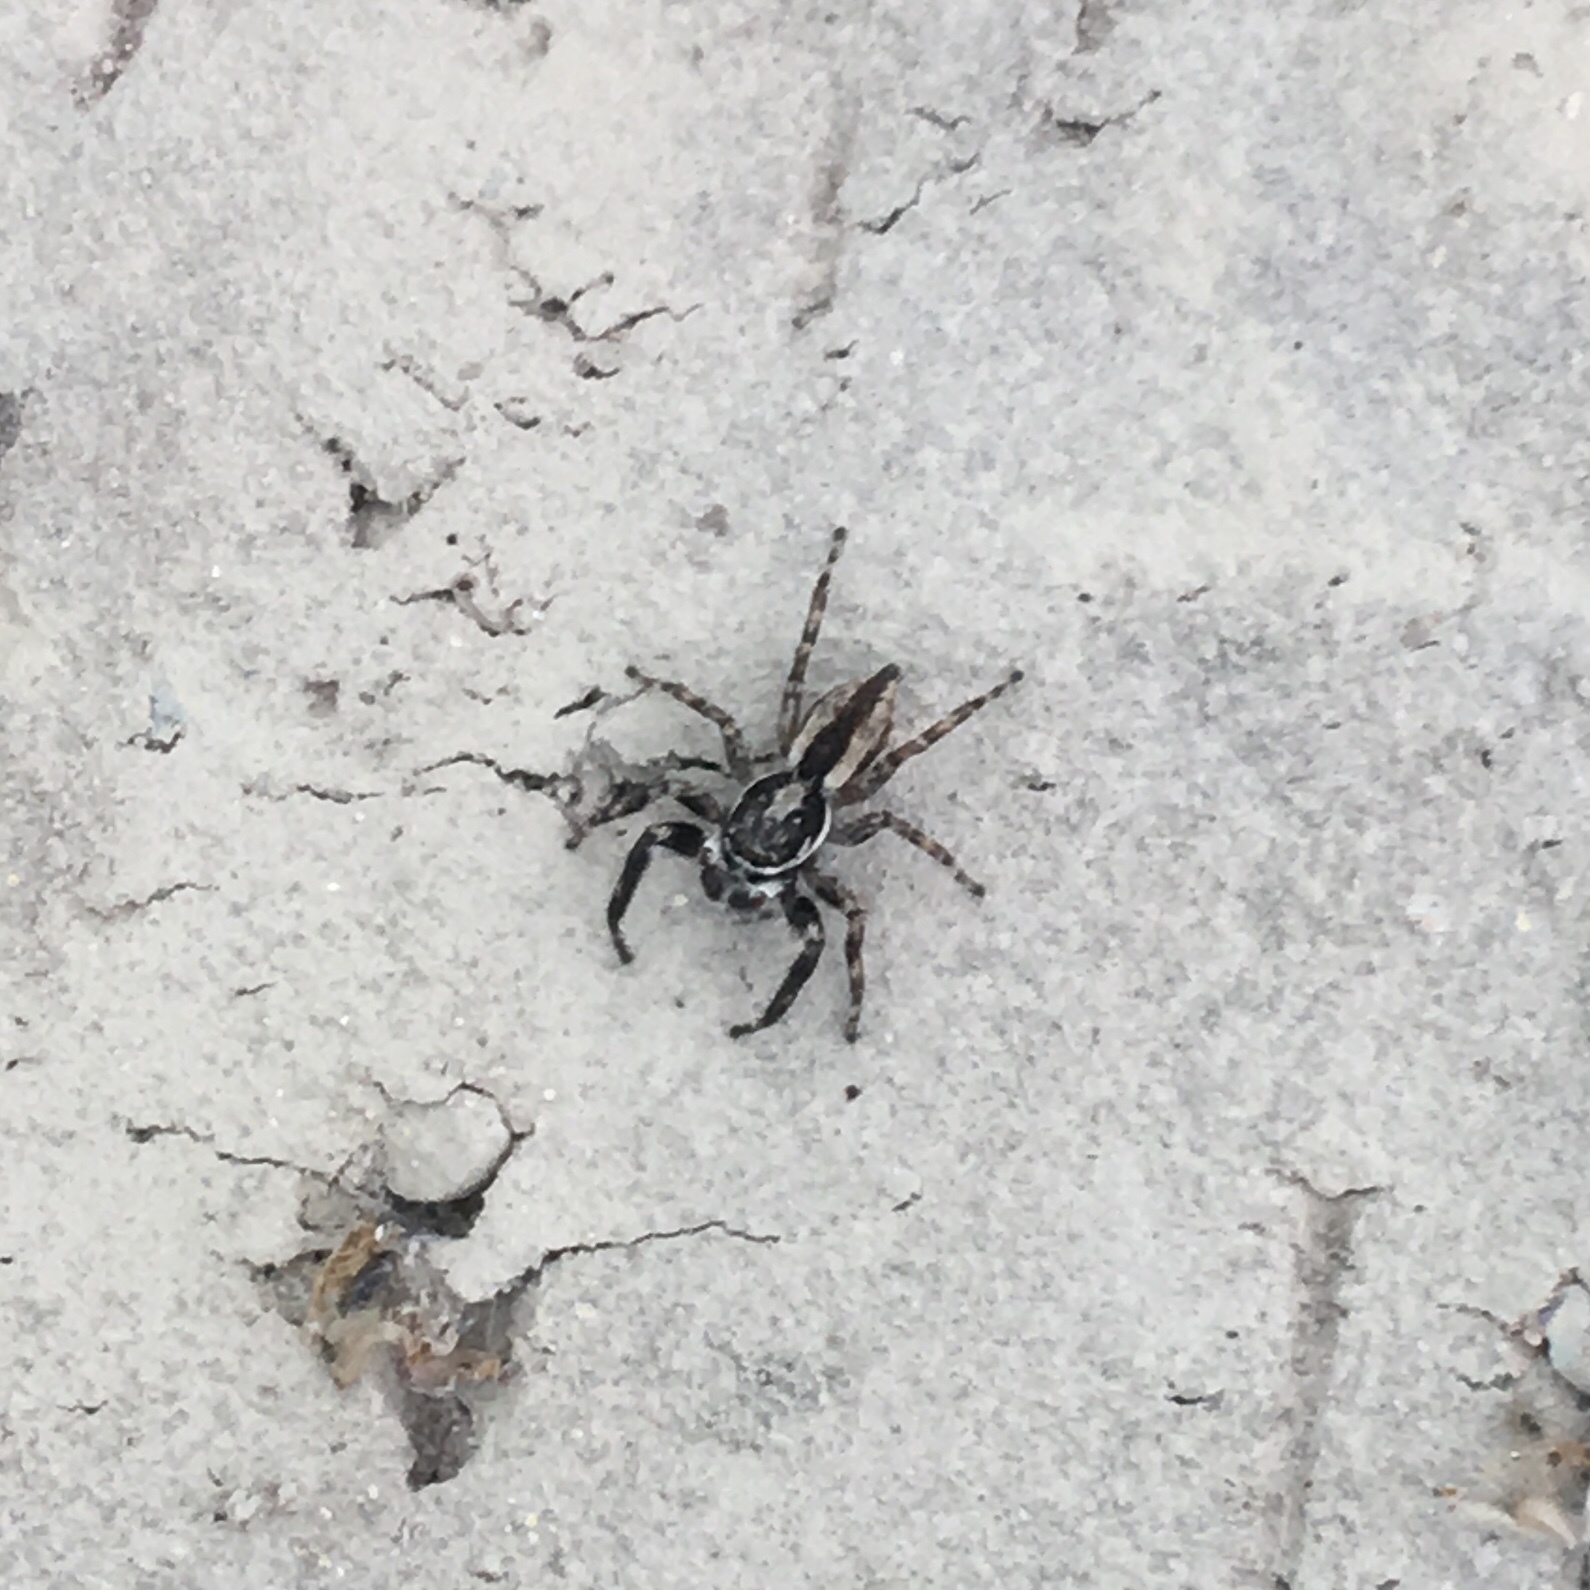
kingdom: Animalia
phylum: Arthropoda
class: Arachnida
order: Araneae
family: Salticidae
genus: Menemerus
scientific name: Menemerus bivittatus
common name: Gray wall jumper
